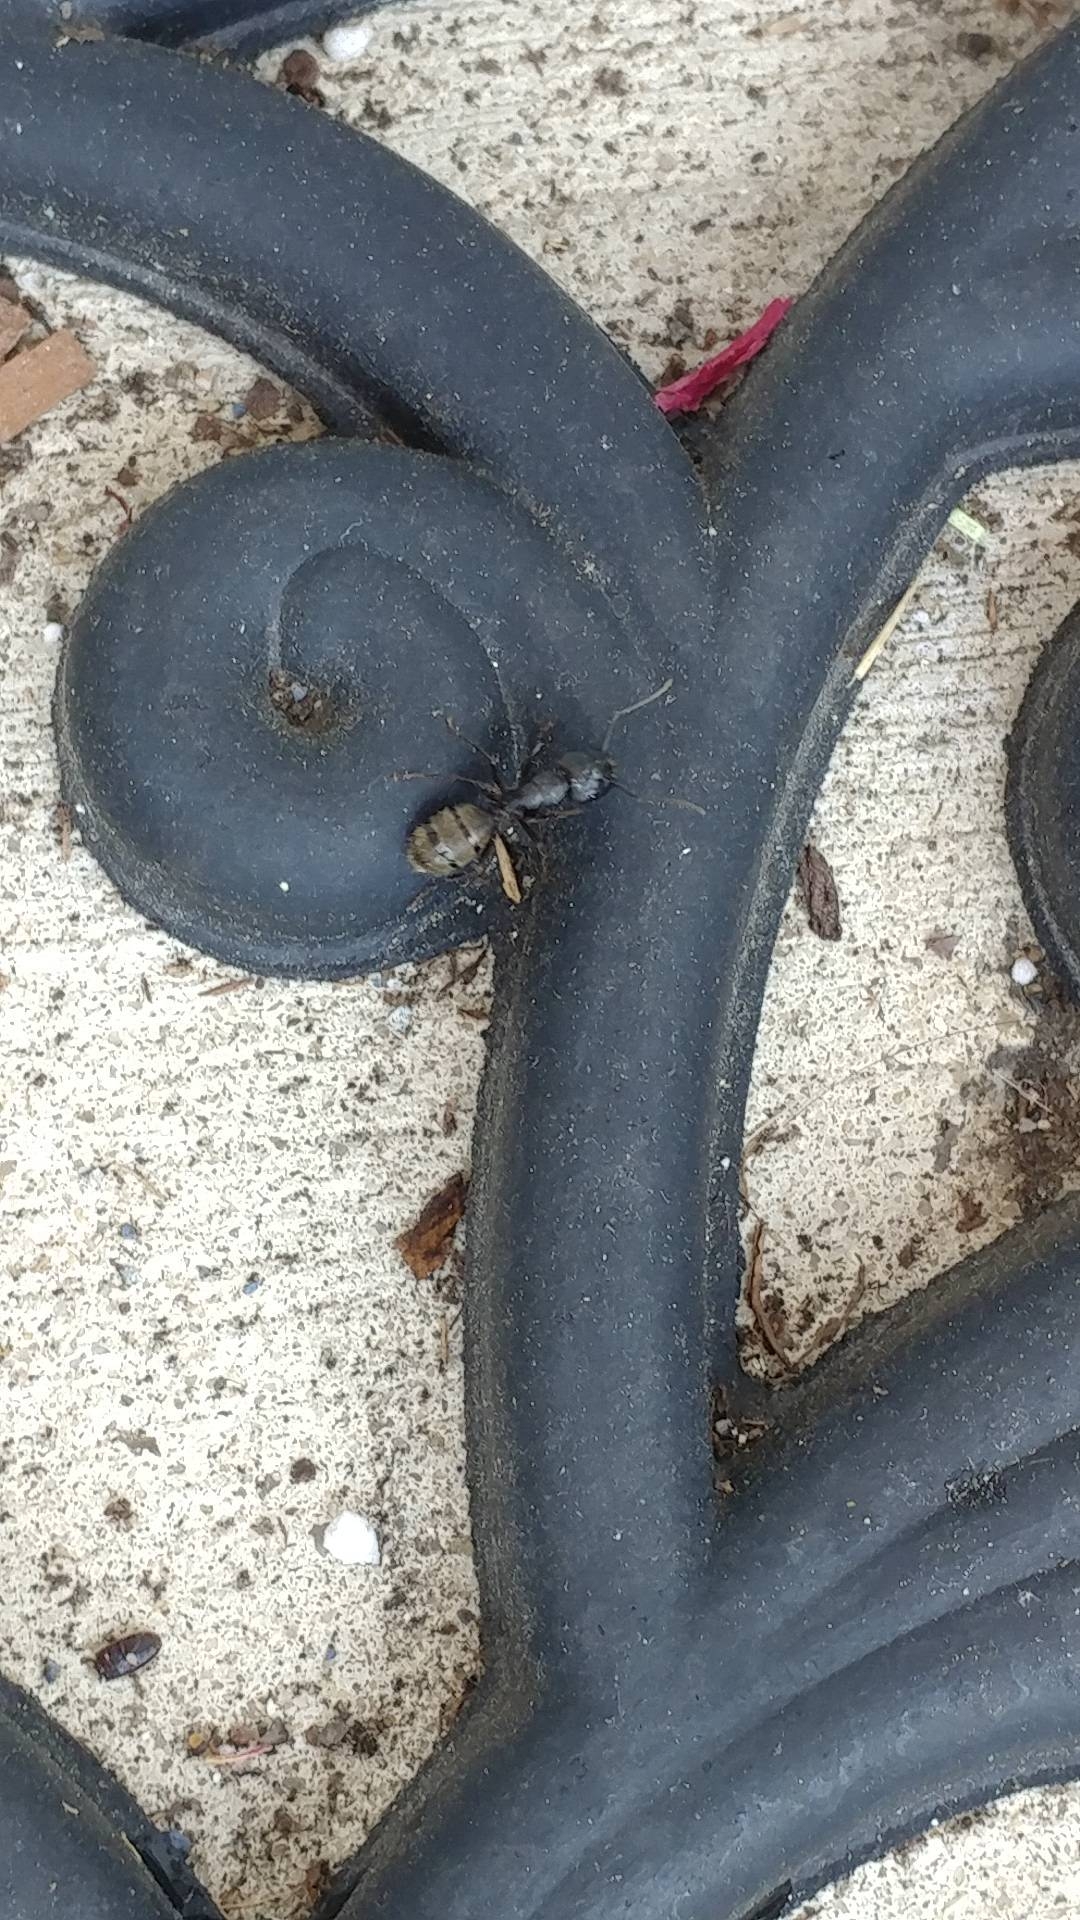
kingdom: Animalia
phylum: Arthropoda
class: Insecta
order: Hymenoptera
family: Formicidae
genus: Camponotus
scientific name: Camponotus pennsylvanicus
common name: Black carpenter ant
